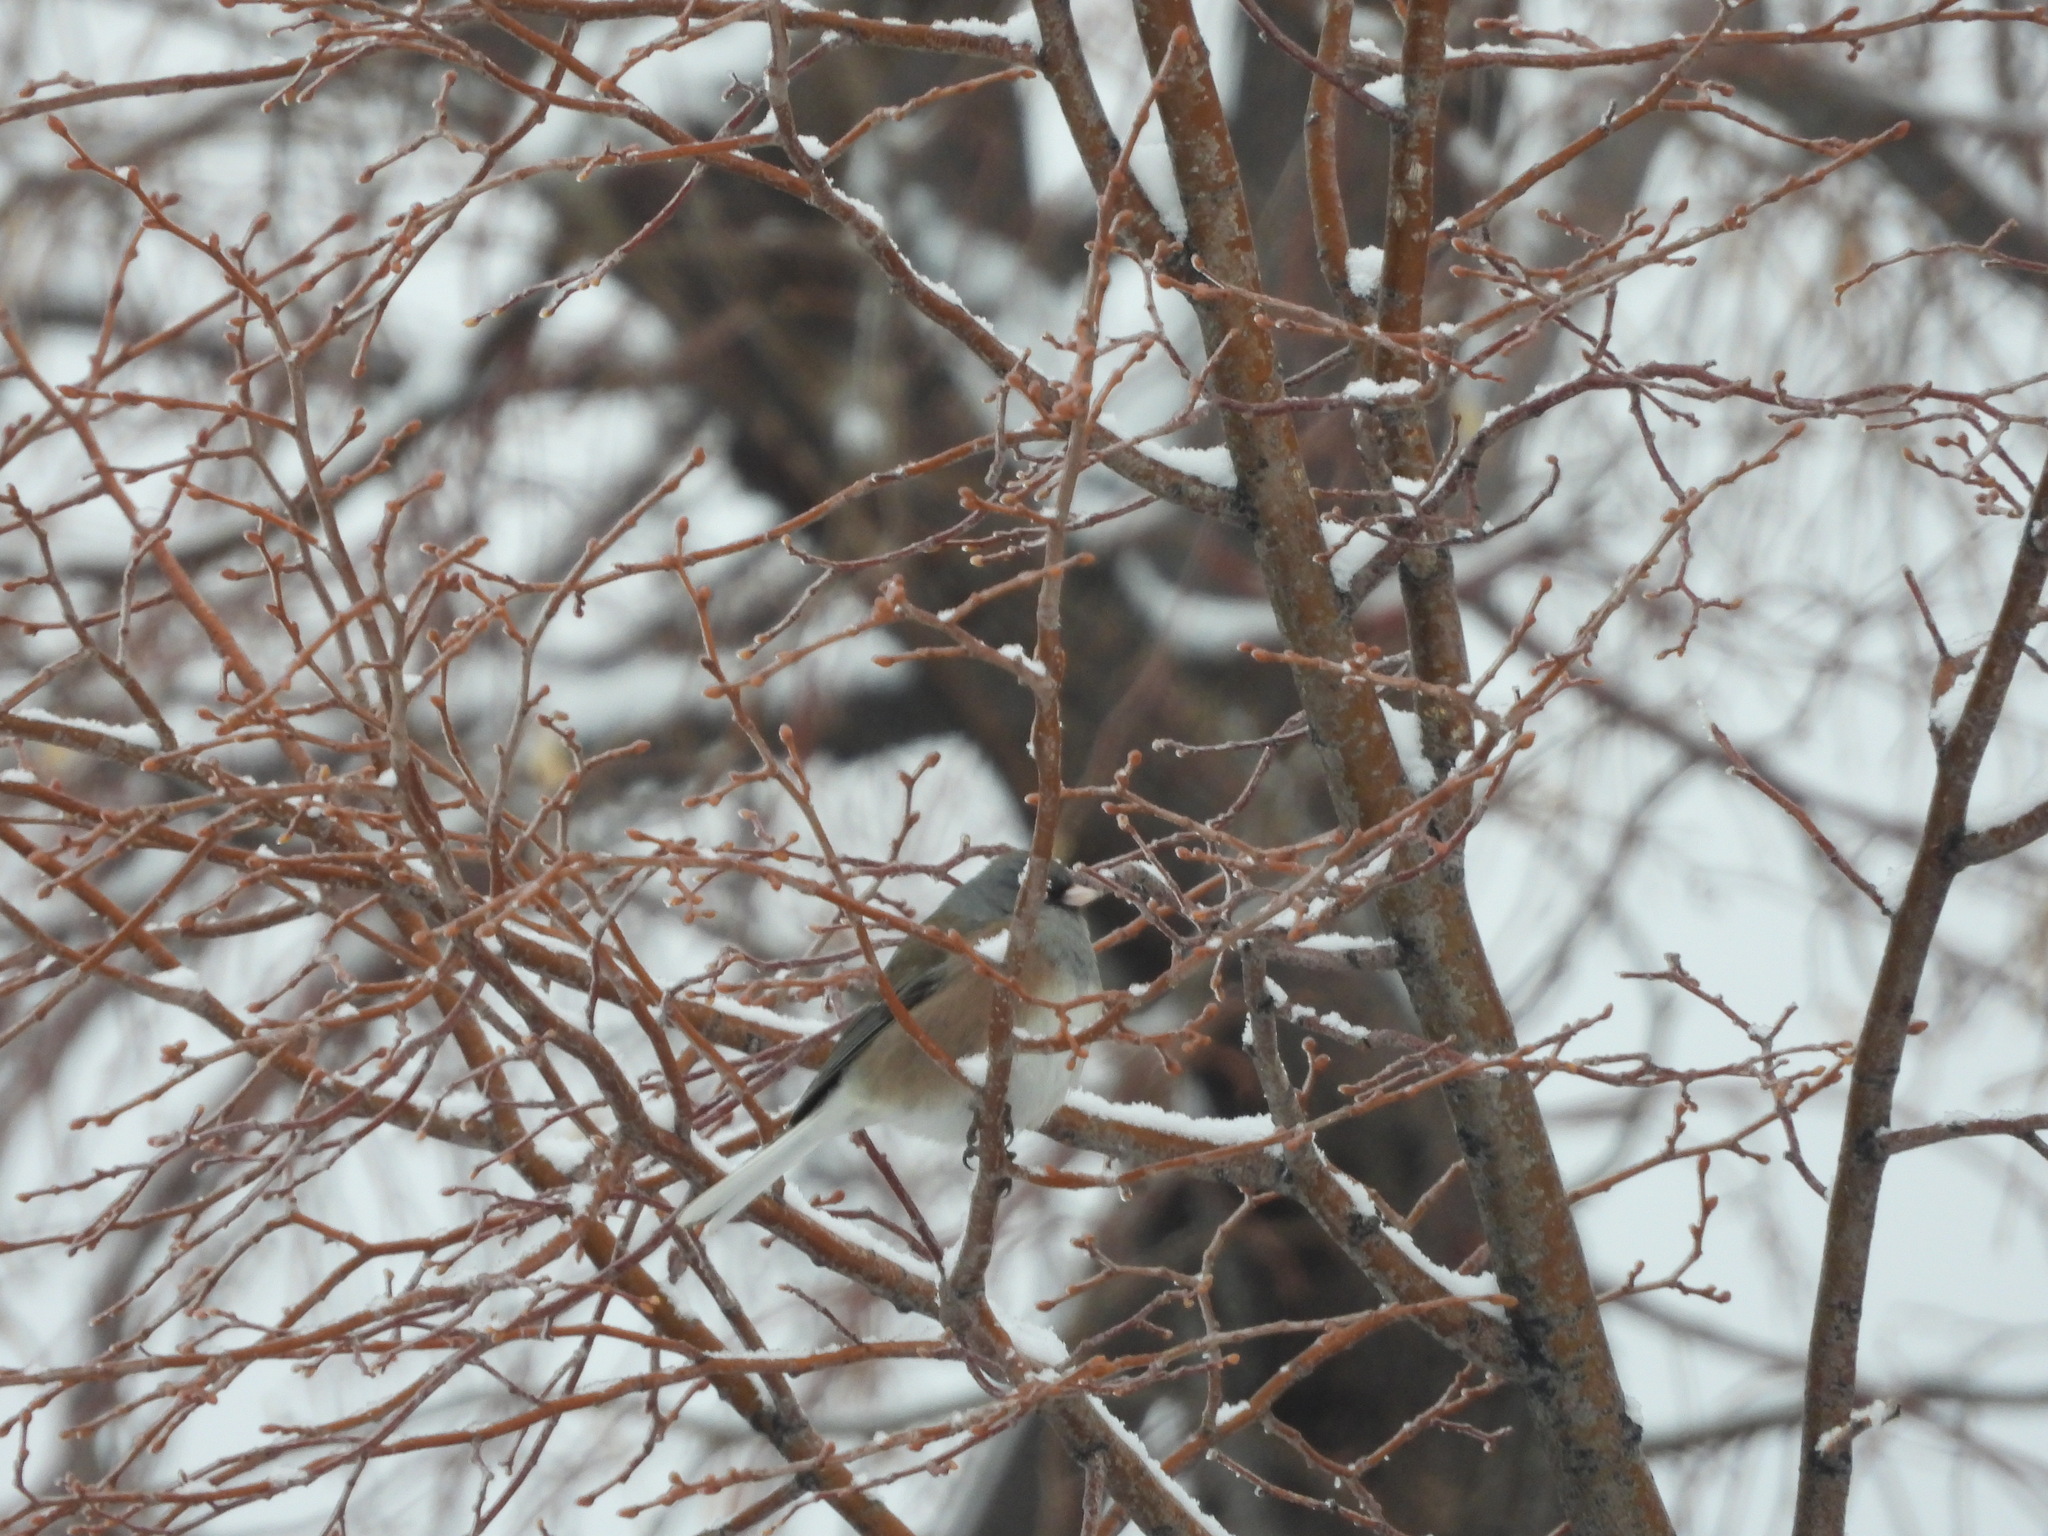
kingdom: Animalia
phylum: Chordata
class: Aves
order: Passeriformes
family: Passerellidae
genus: Junco
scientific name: Junco hyemalis
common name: Dark-eyed junco
